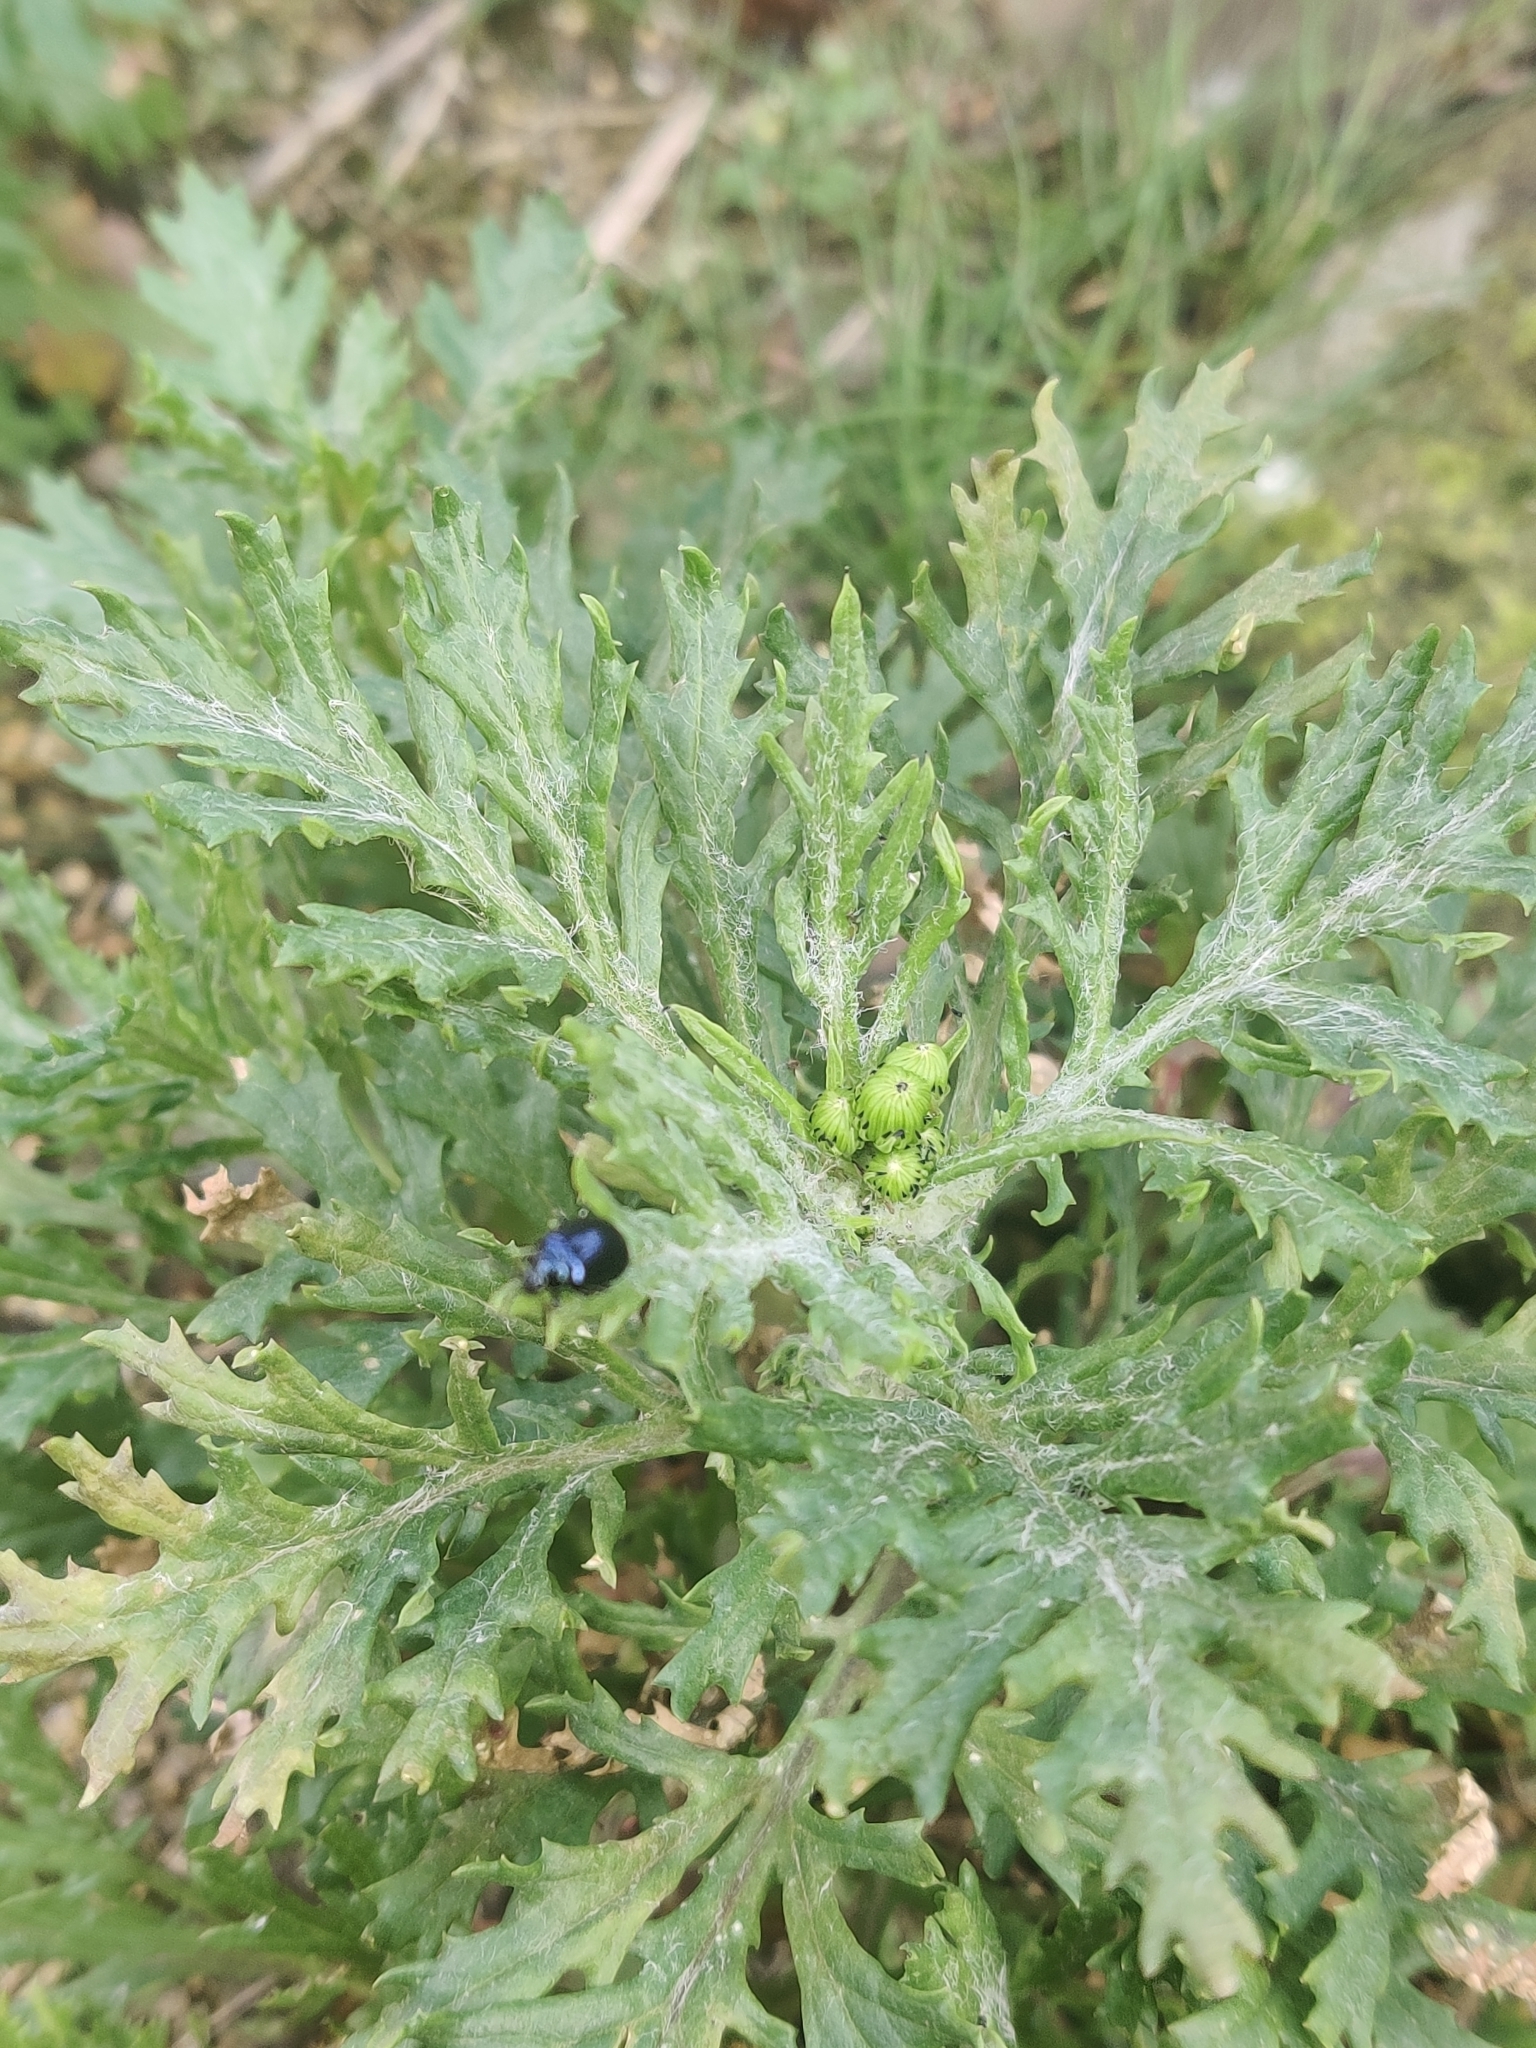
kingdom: Animalia
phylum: Arthropoda
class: Insecta
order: Coleoptera
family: Chrysomelidae
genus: Agelastica
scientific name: Agelastica alni
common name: Alder leaf beetle
